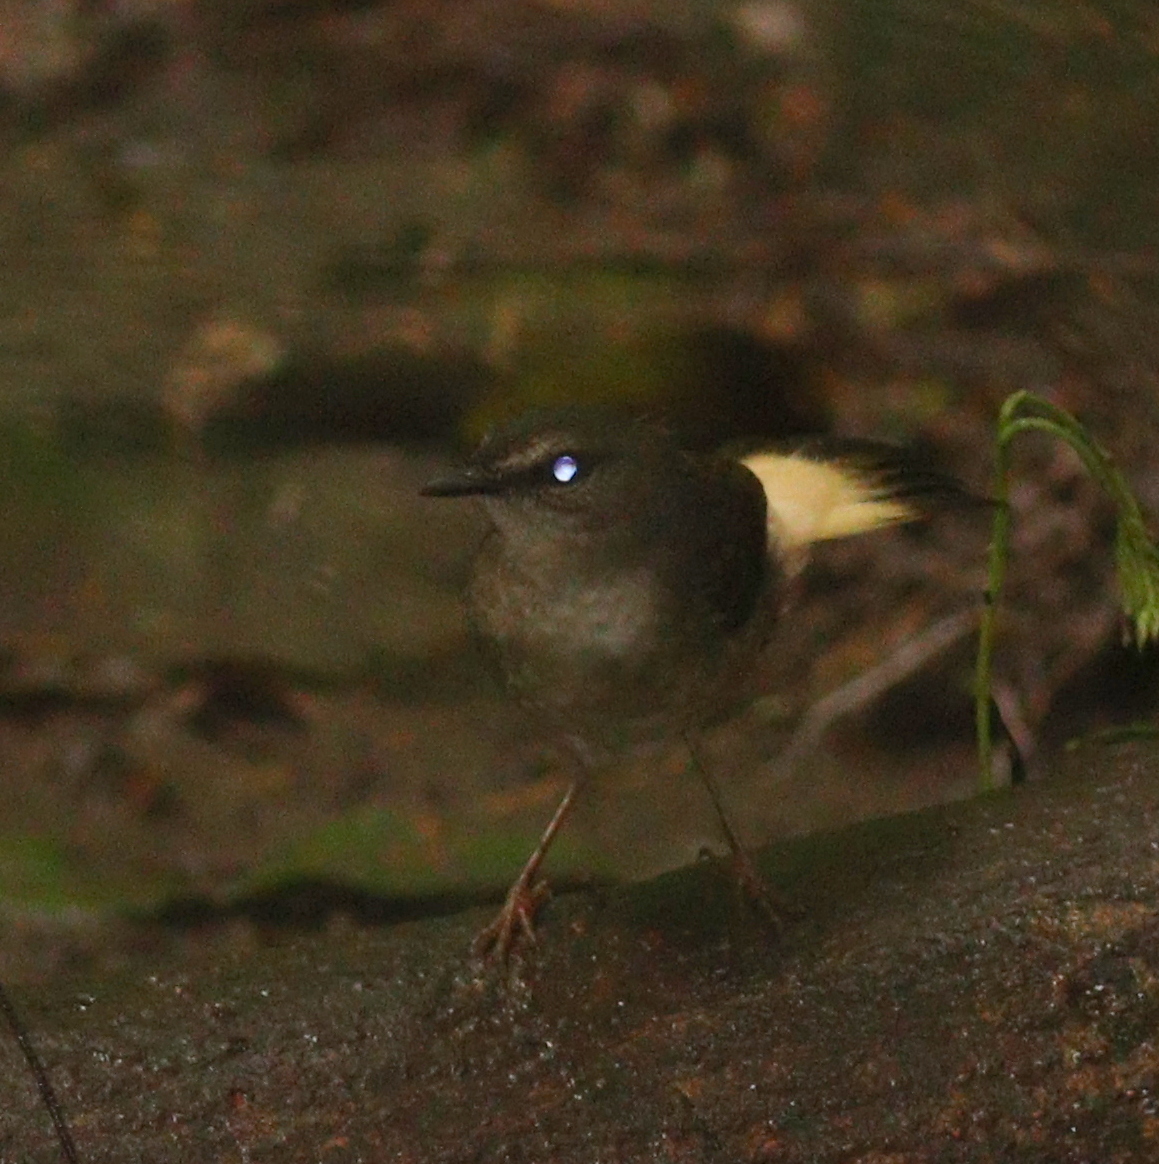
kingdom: Animalia
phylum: Chordata
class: Aves
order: Passeriformes
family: Parulidae
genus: Myiothlypis
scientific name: Myiothlypis fulvicauda
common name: Buff-rumped warbler
